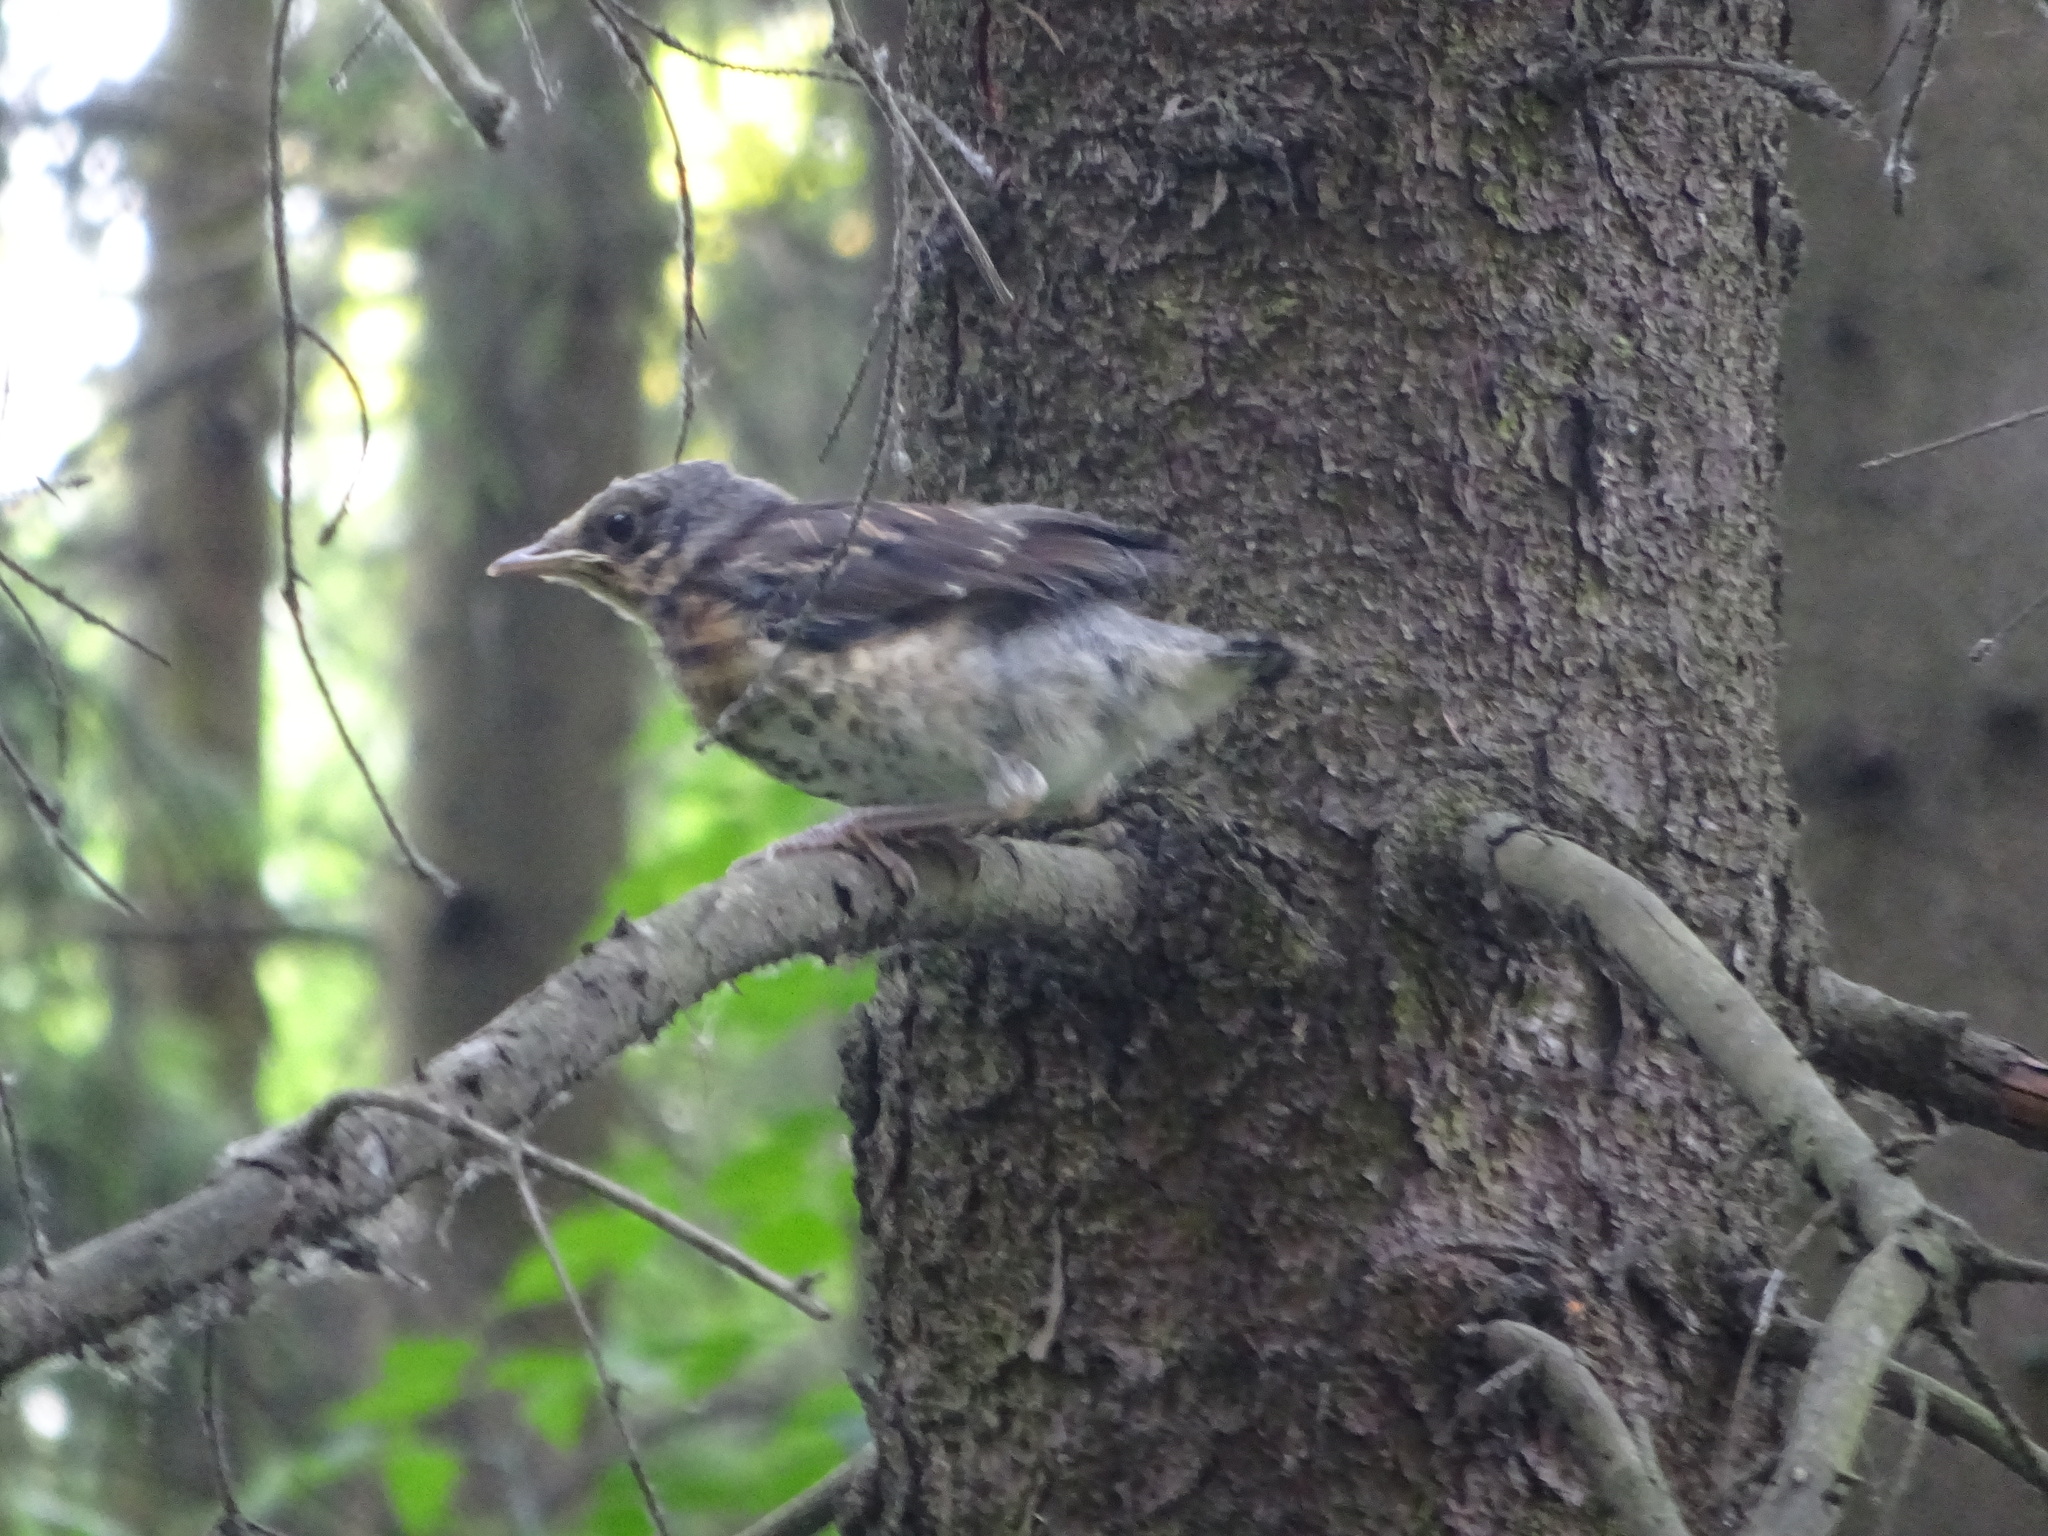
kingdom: Animalia
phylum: Chordata
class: Aves
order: Passeriformes
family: Turdidae
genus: Turdus
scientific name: Turdus pilaris
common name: Fieldfare
